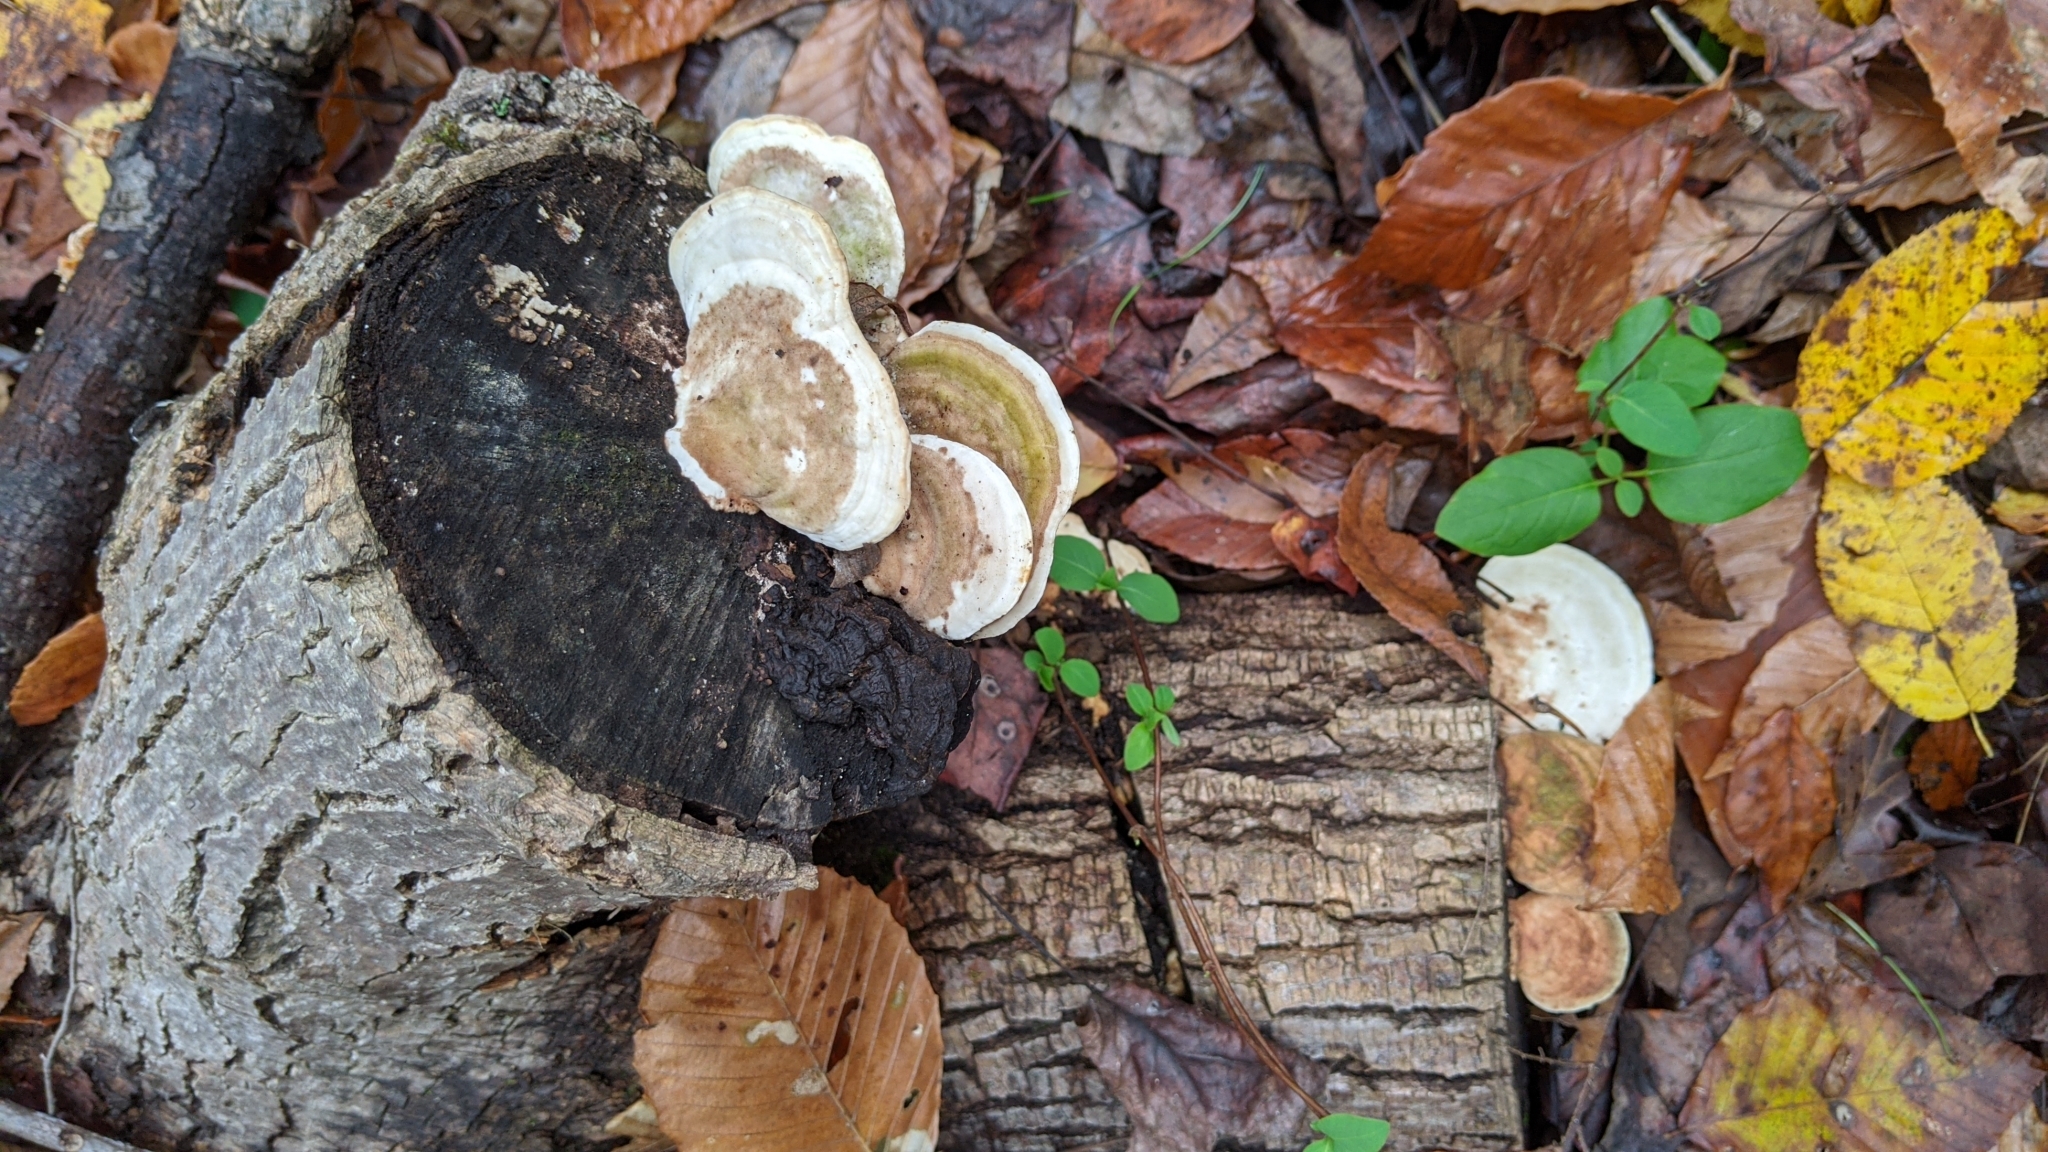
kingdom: Fungi
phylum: Basidiomycota
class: Agaricomycetes
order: Polyporales
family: Polyporaceae
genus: Trametes
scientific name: Trametes gibbosa
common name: Lumpy bracket
